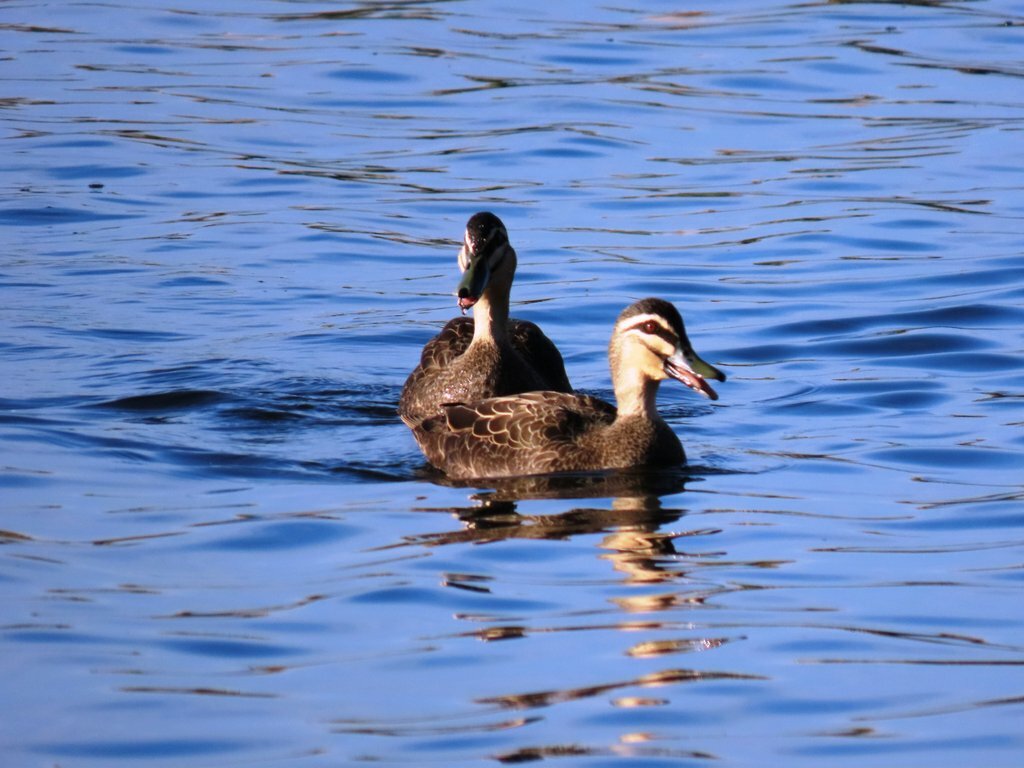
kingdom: Animalia
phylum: Chordata
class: Aves
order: Anseriformes
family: Anatidae
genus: Anas
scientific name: Anas superciliosa
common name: Pacific black duck
